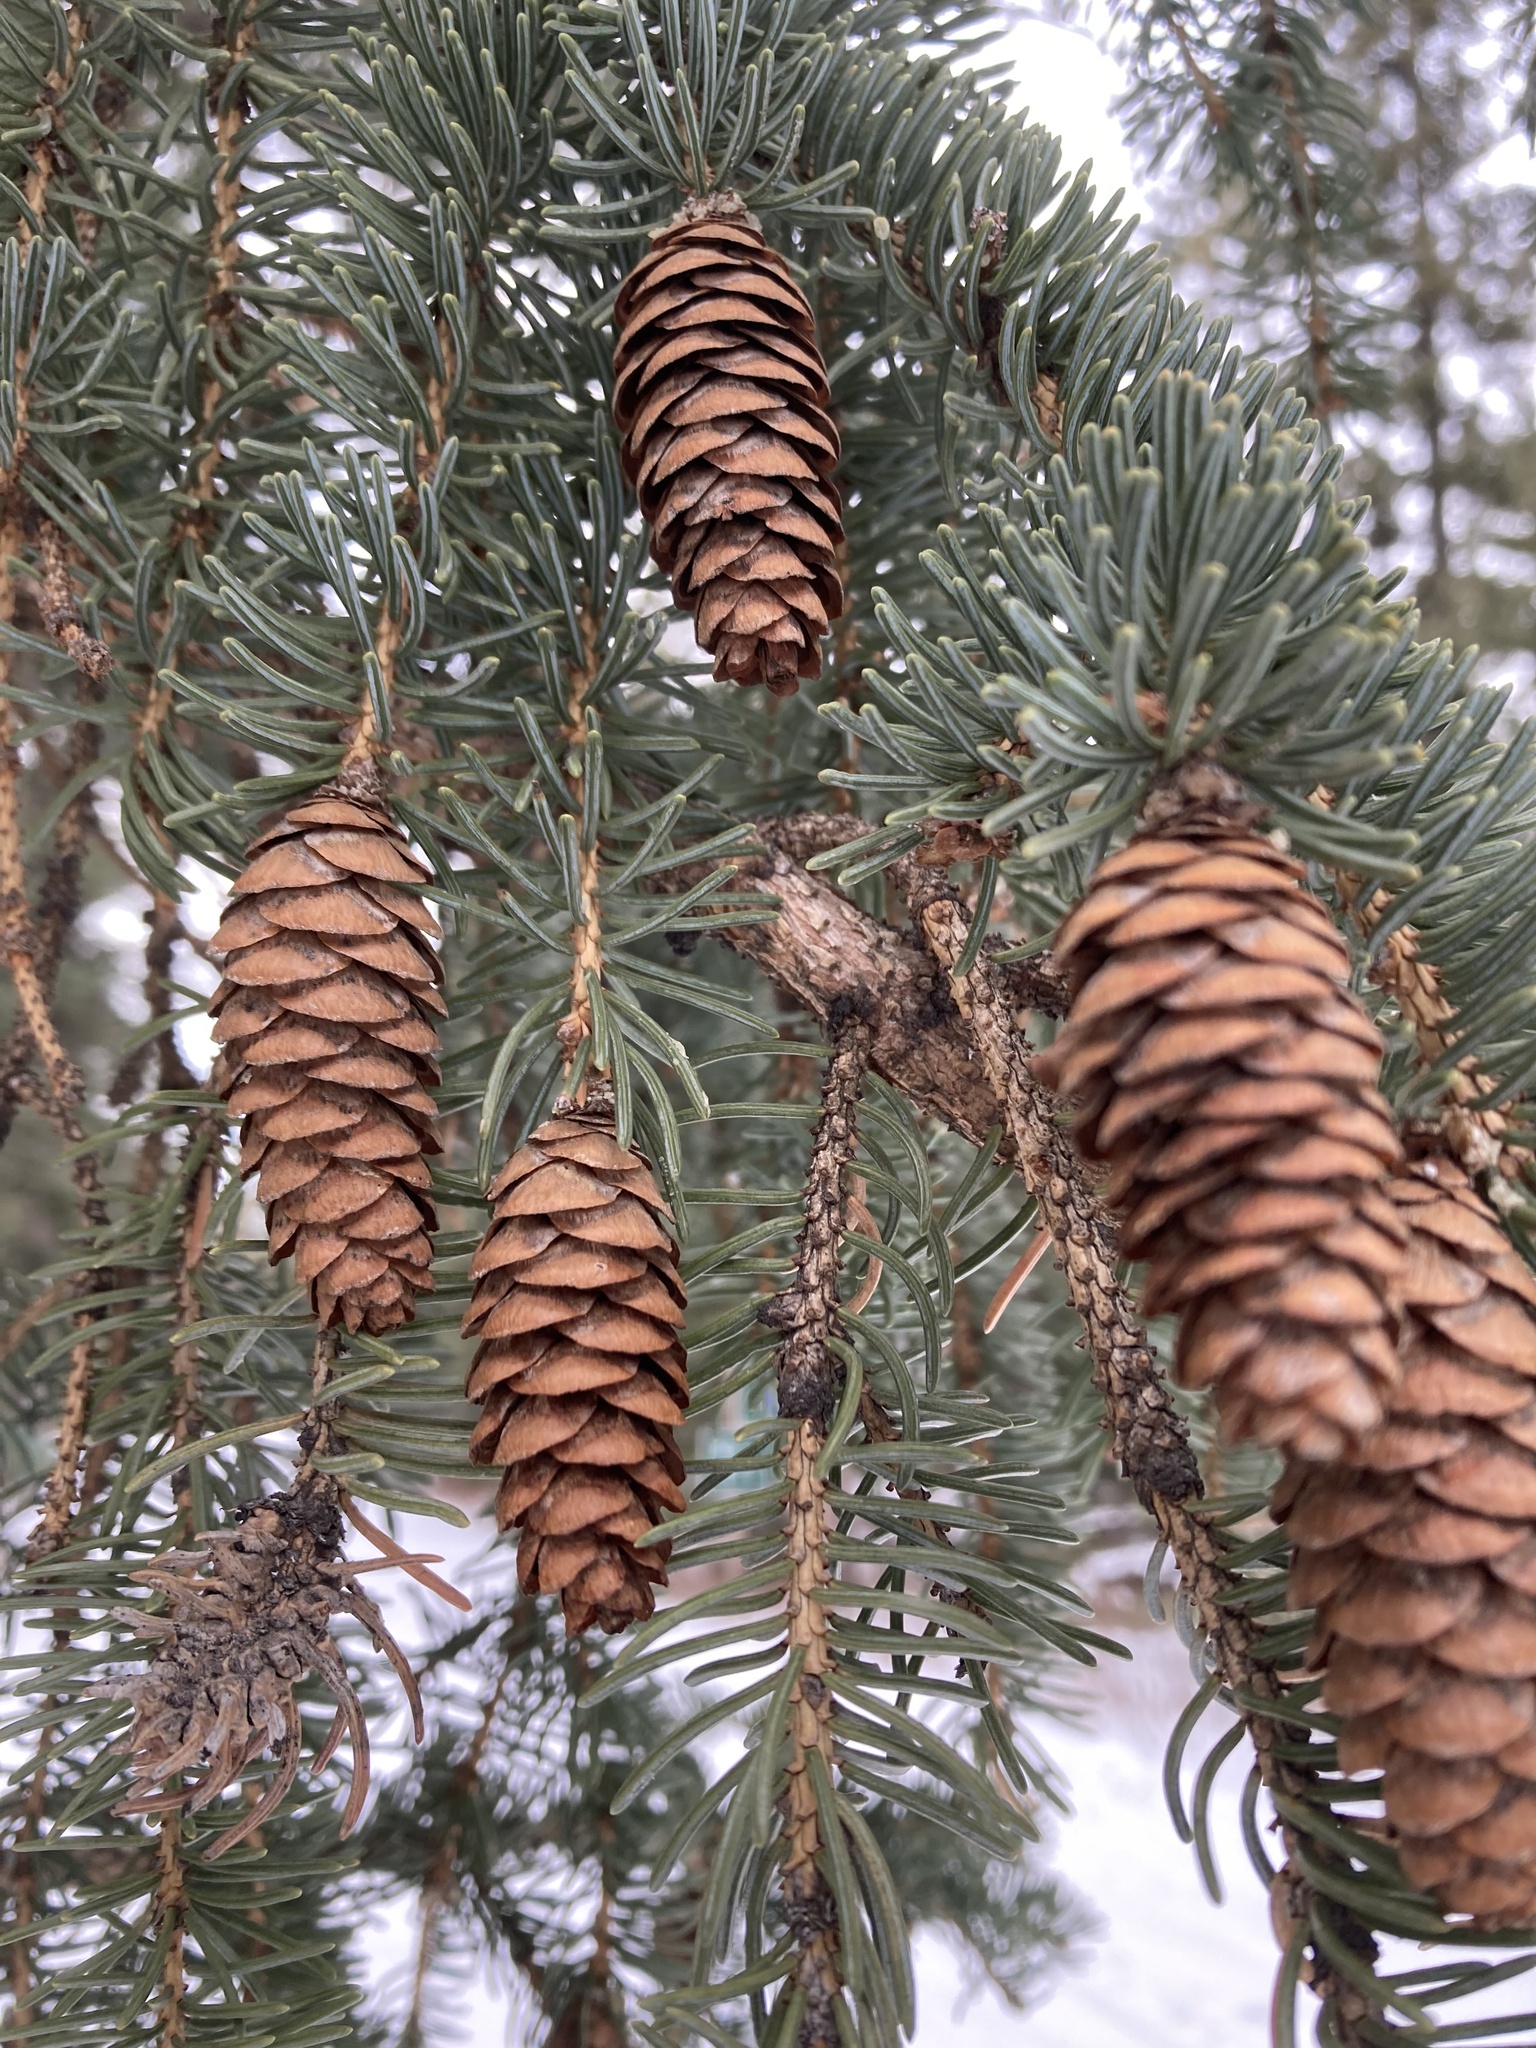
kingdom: Plantae
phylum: Tracheophyta
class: Pinopsida
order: Pinales
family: Pinaceae
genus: Picea
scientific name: Picea glauca
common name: White spruce
